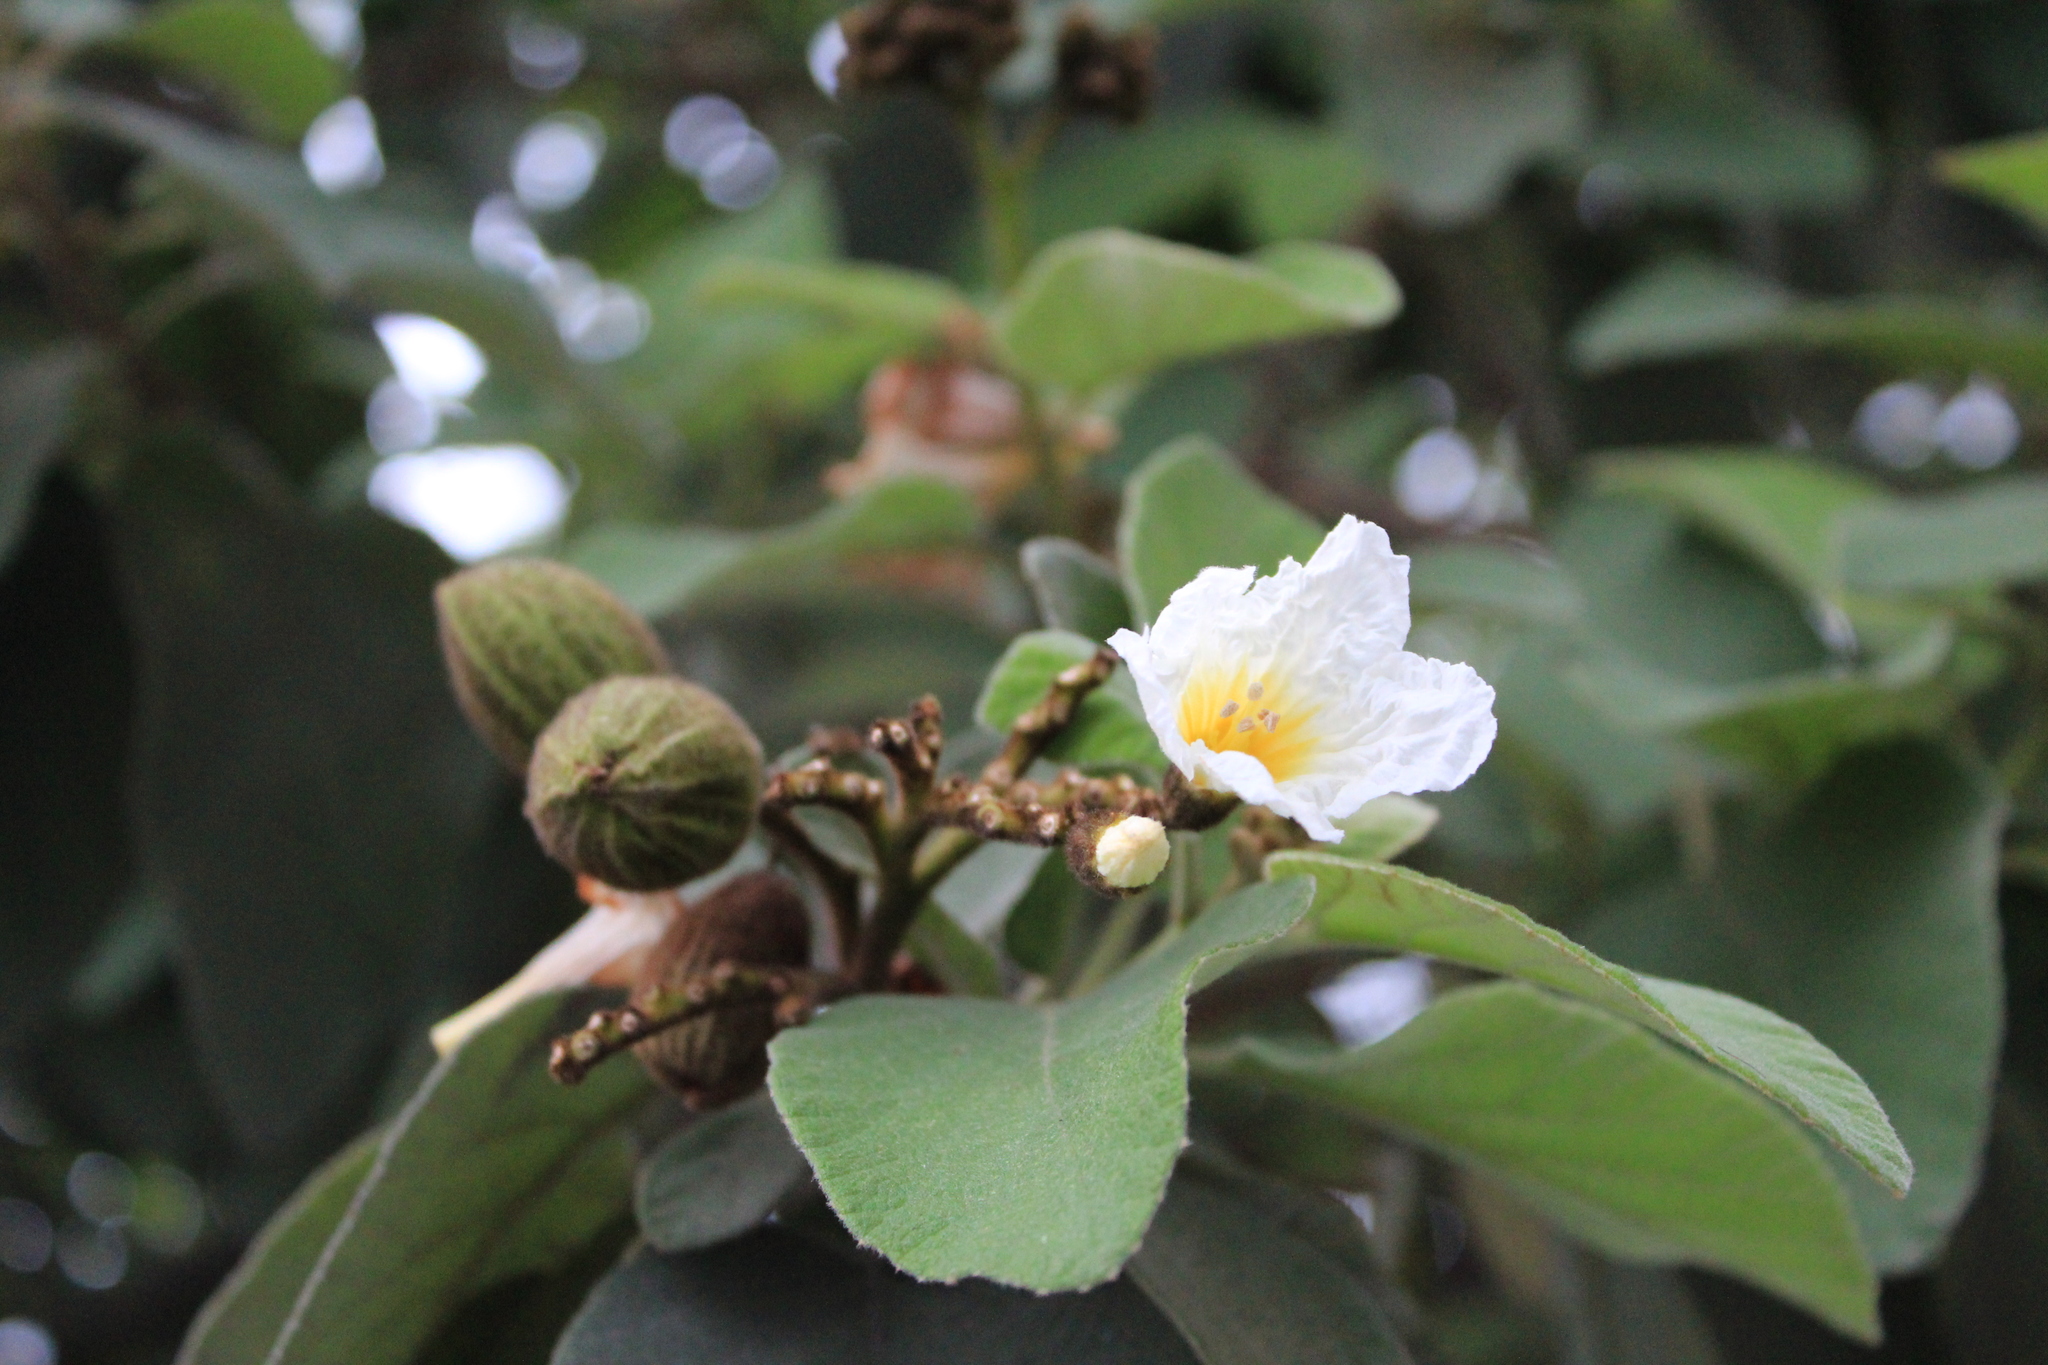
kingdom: Plantae
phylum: Tracheophyta
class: Magnoliopsida
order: Boraginales
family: Cordiaceae
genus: Cordia
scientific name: Cordia boissieri
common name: Mexican-olive
